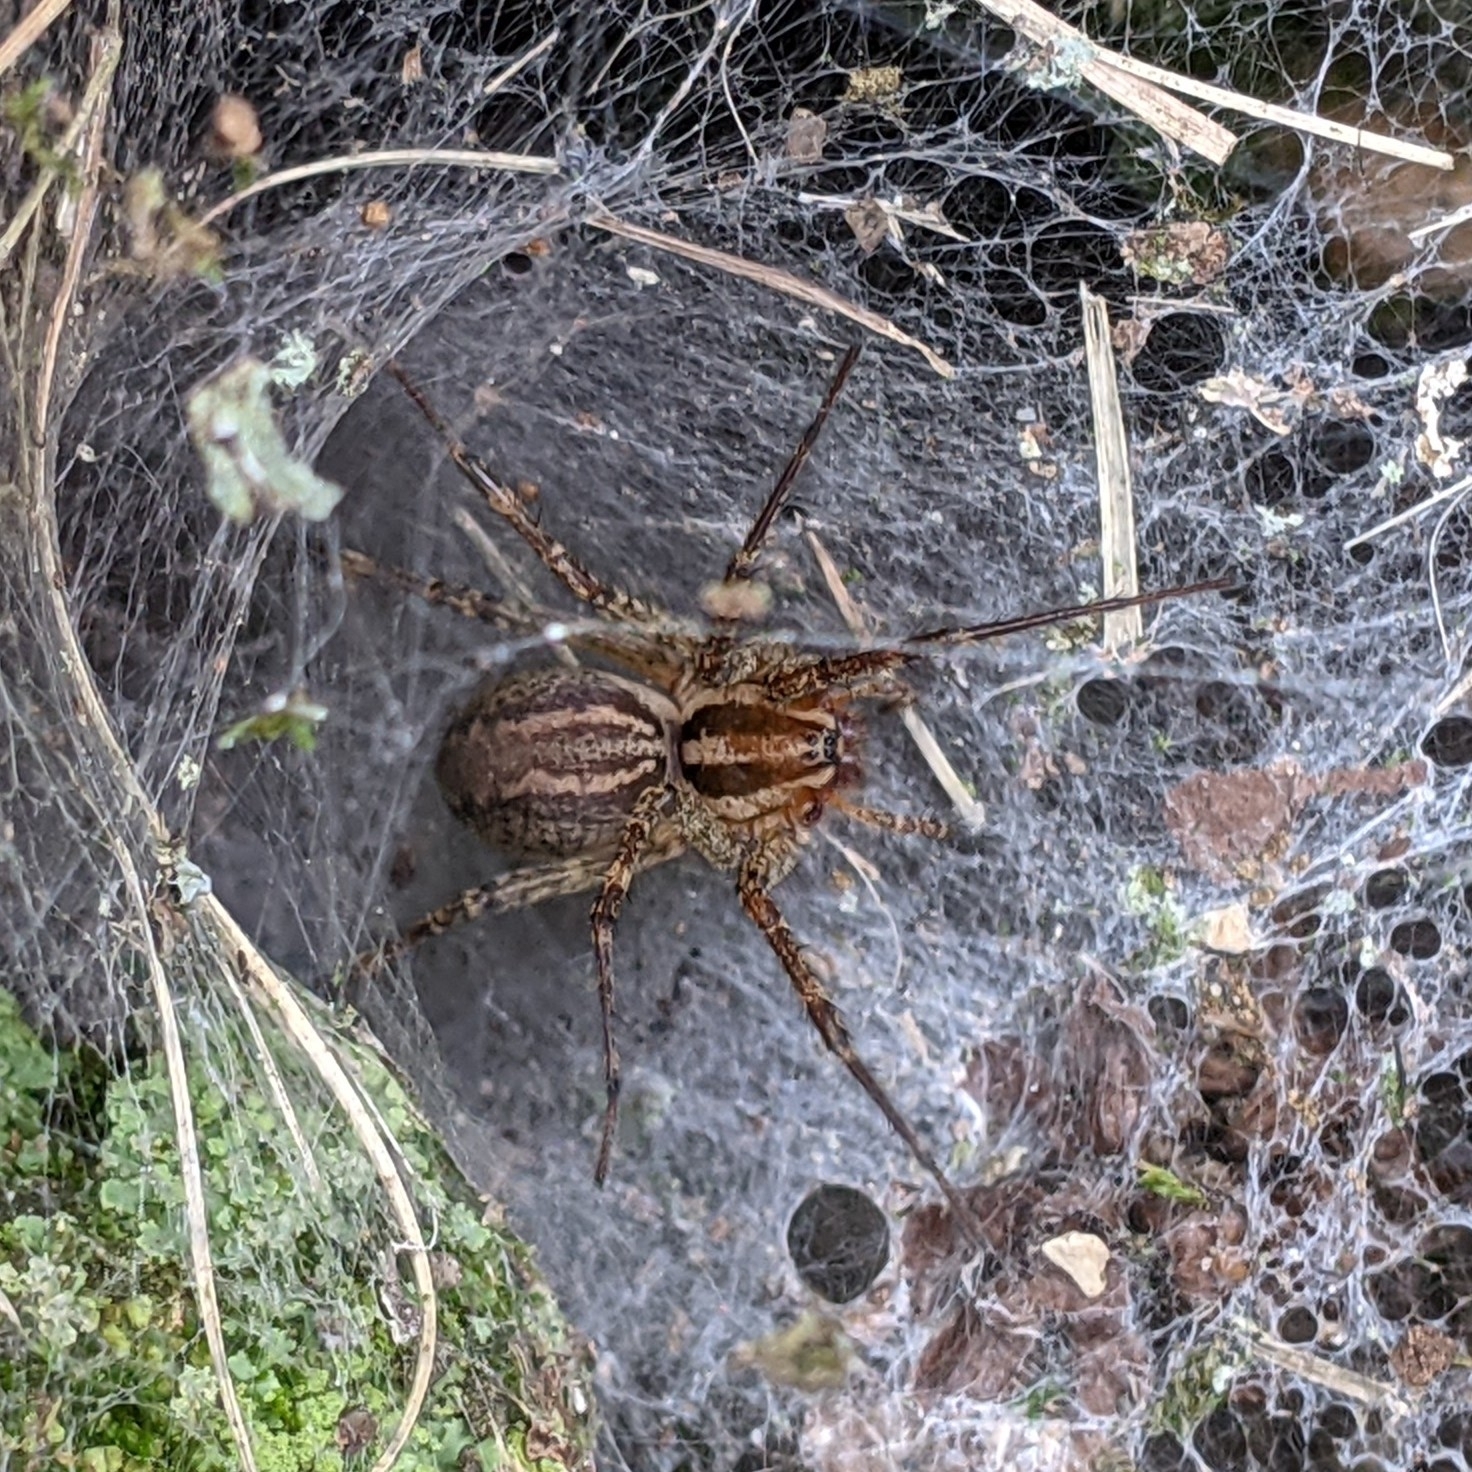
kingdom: Animalia
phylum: Arthropoda
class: Arachnida
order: Araneae
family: Agelenidae
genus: Agelenopsis
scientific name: Agelenopsis
